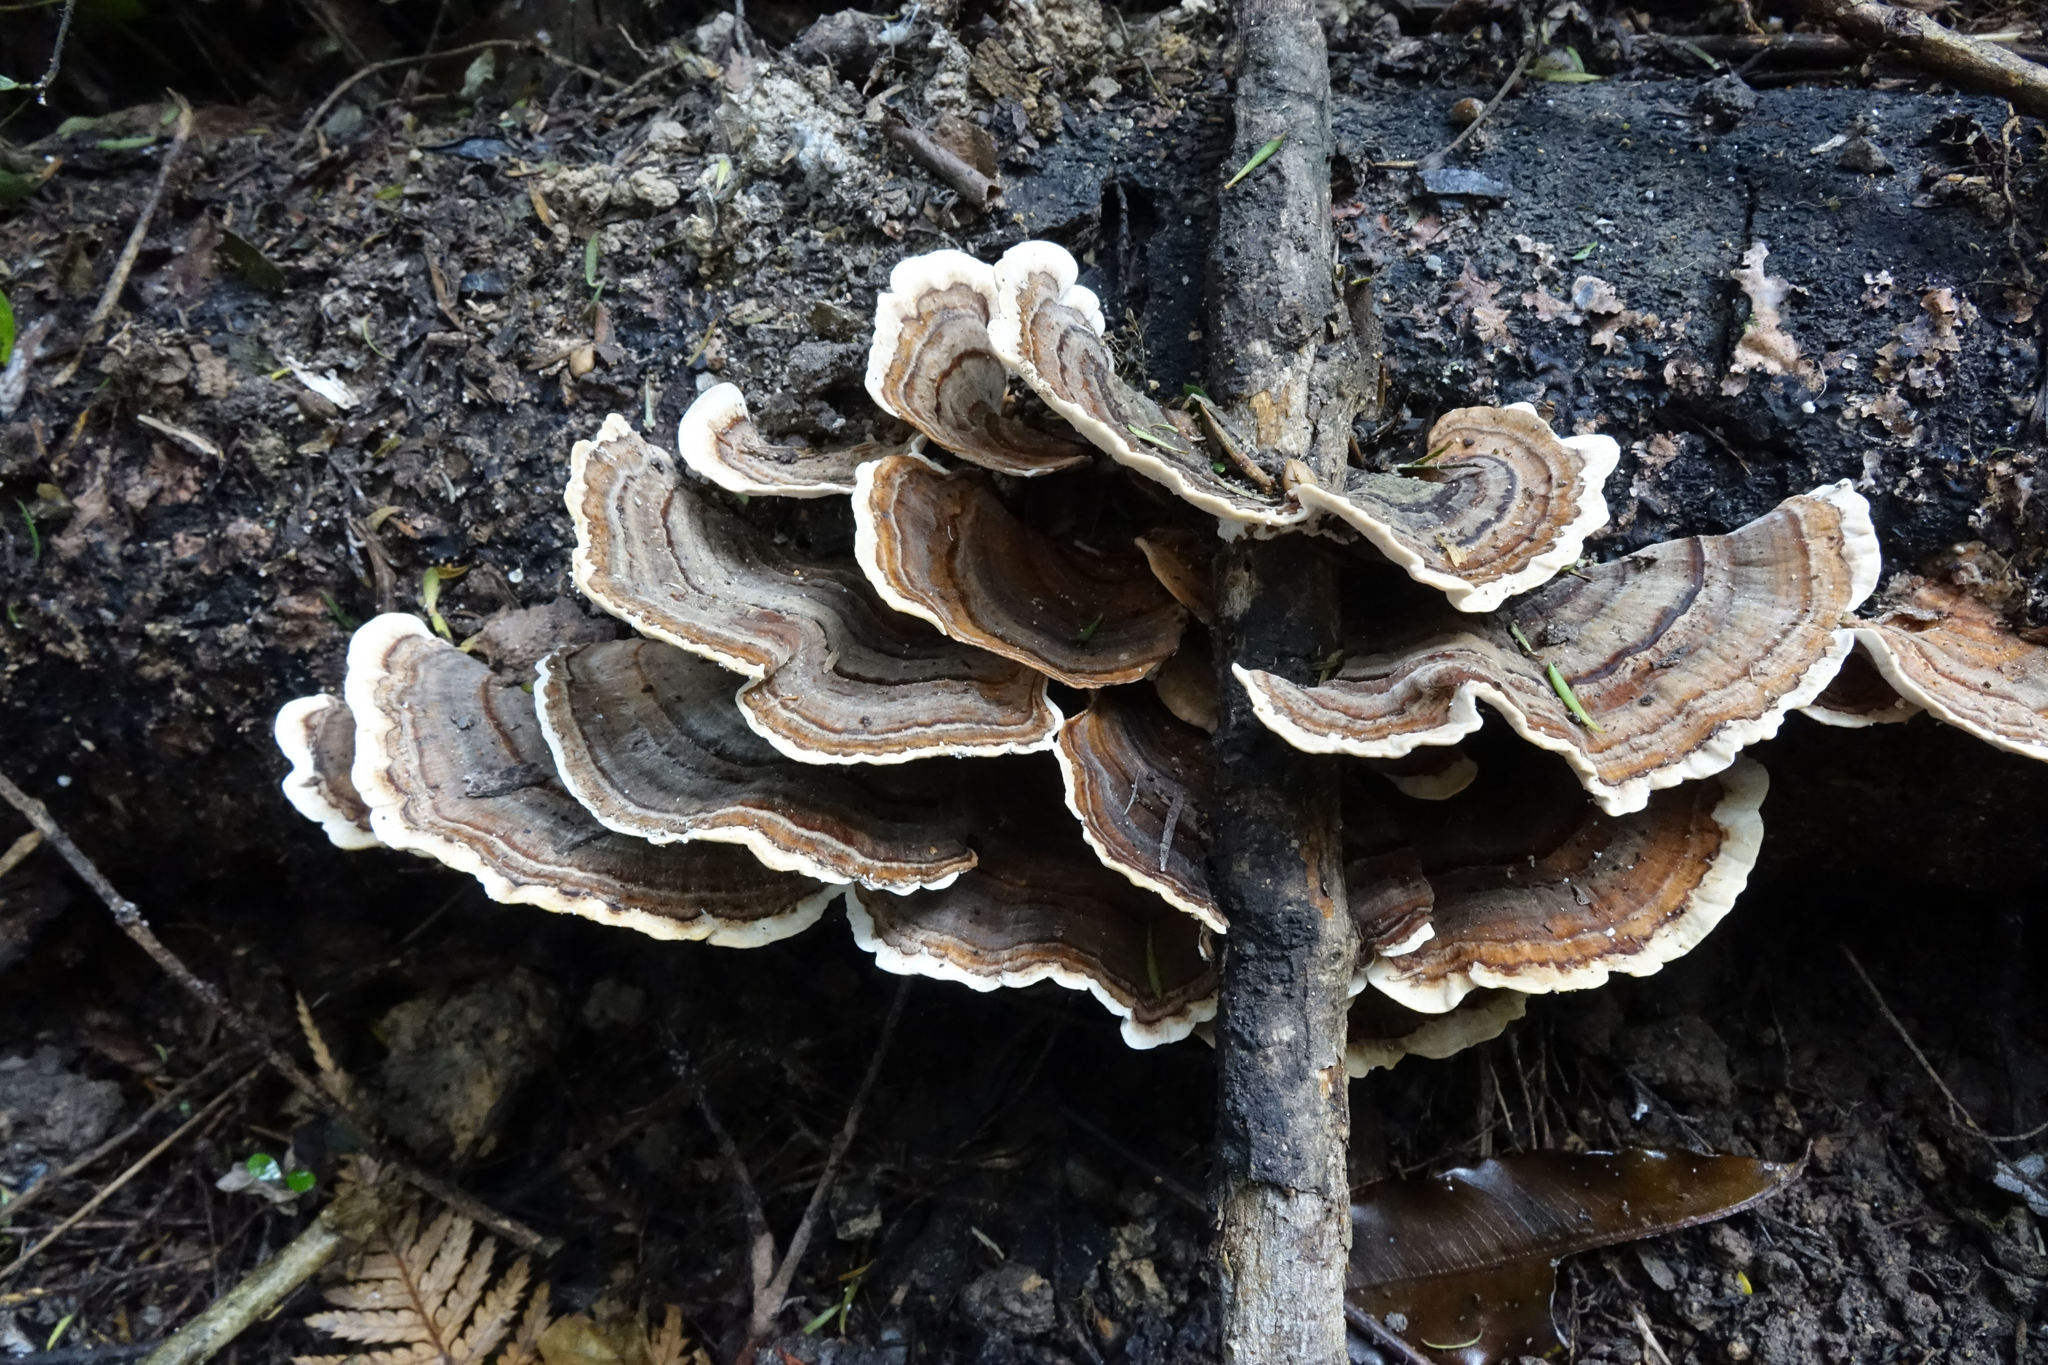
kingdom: Fungi
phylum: Basidiomycota
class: Agaricomycetes
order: Polyporales
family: Polyporaceae
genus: Trametes
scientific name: Trametes versicolor
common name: Turkeytail
